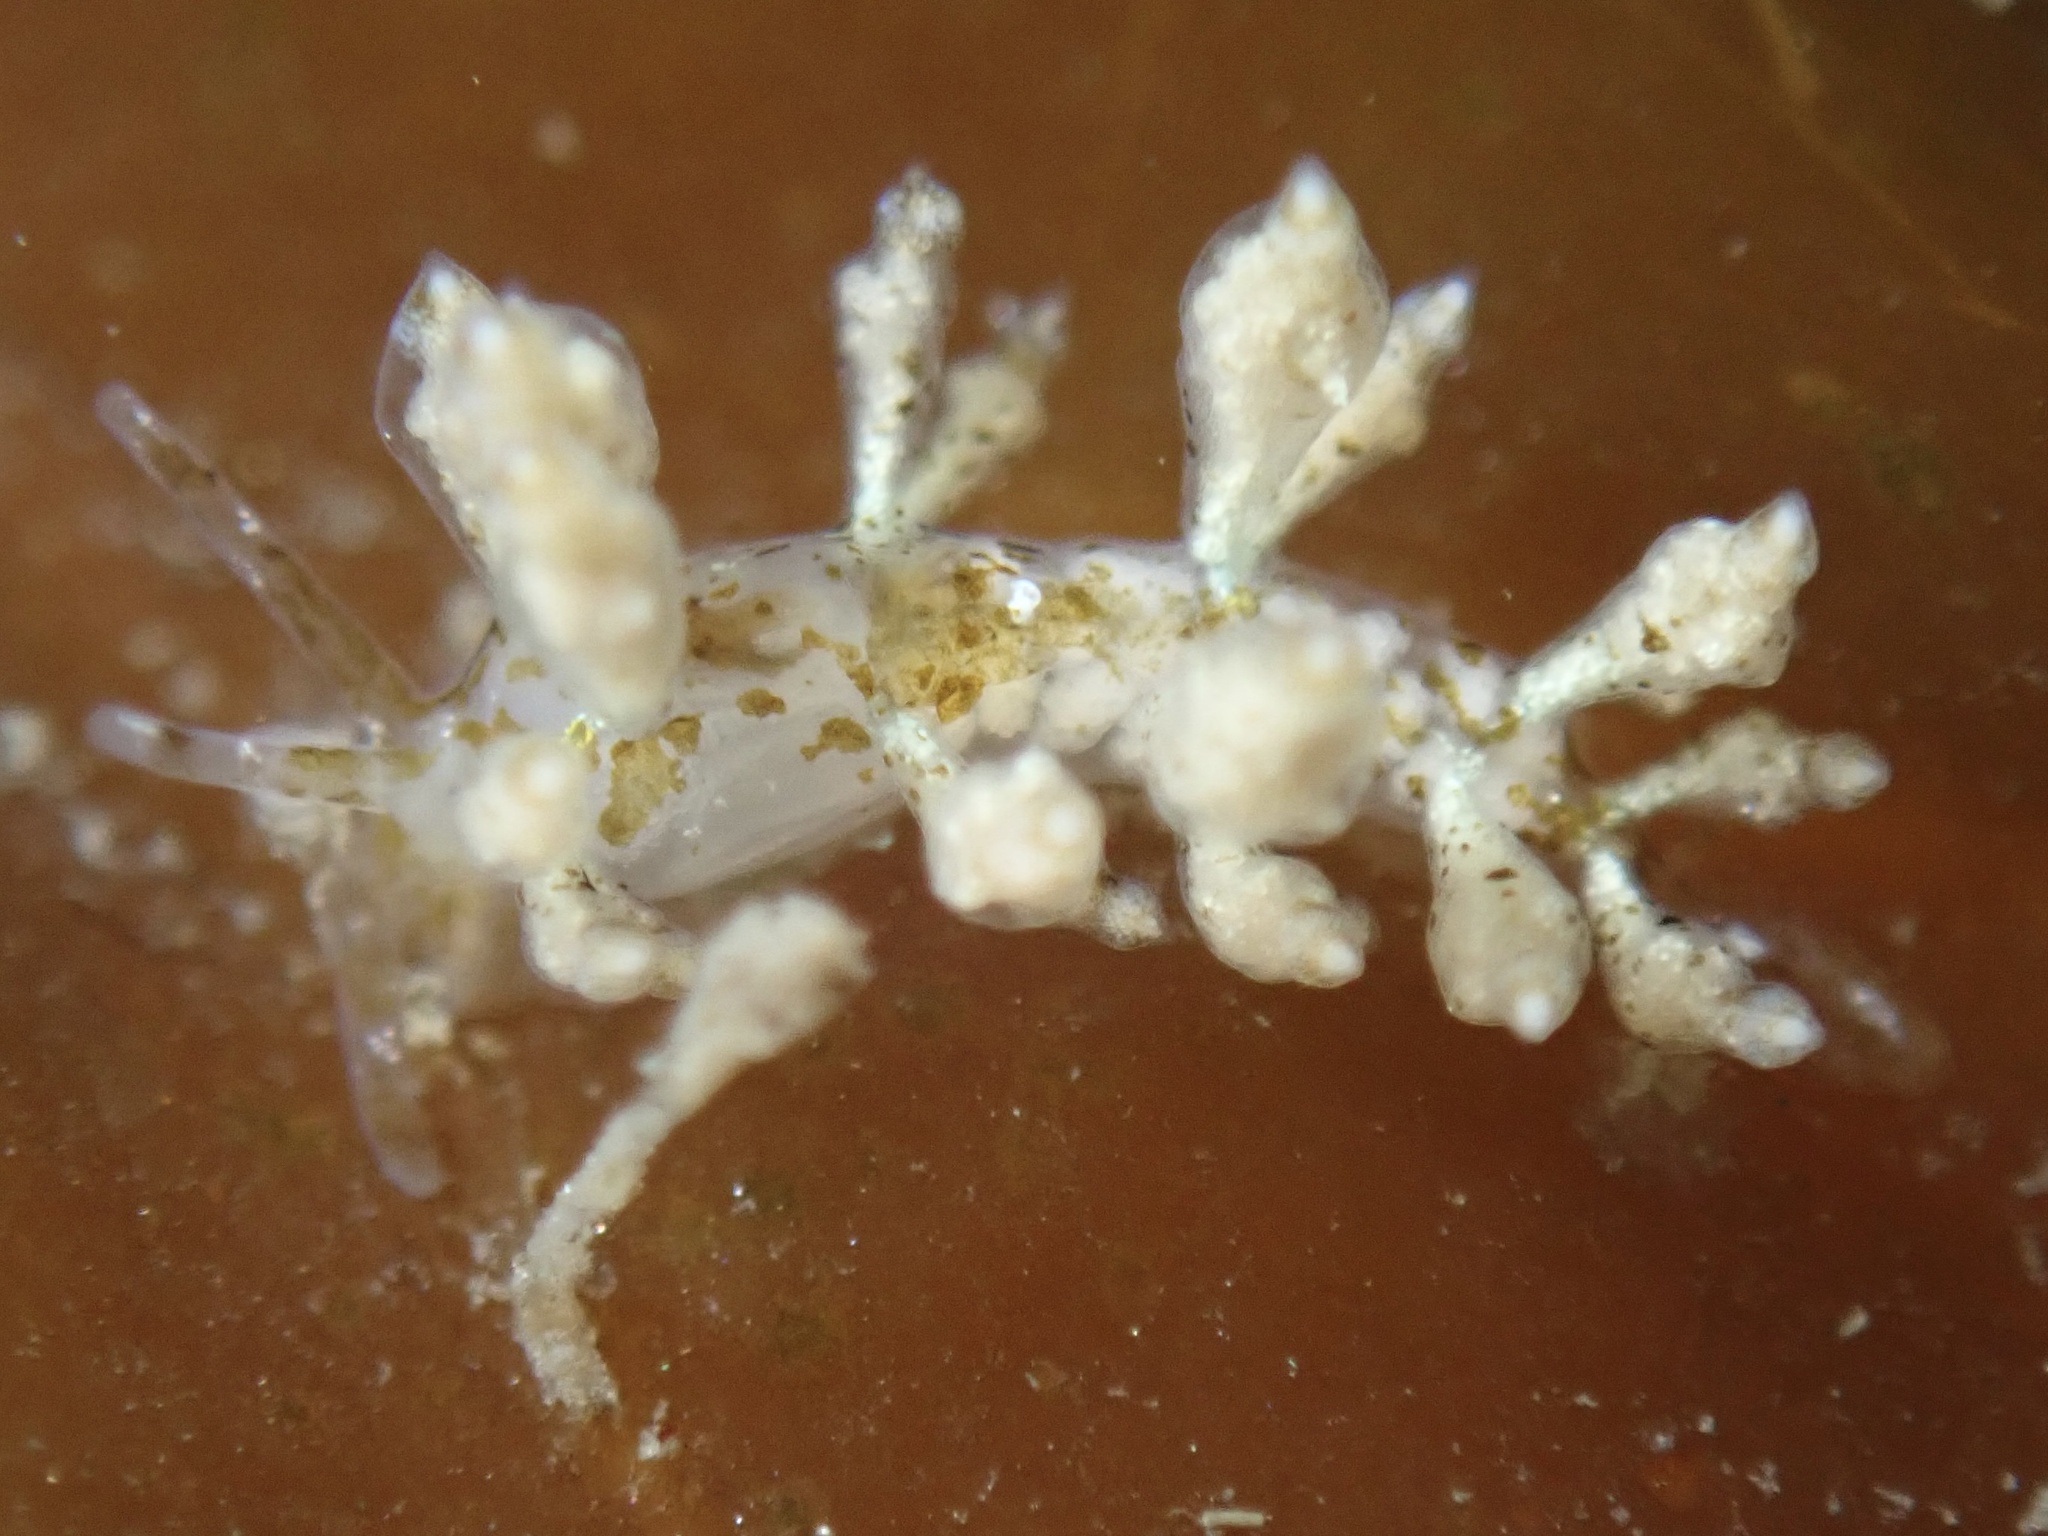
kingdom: Animalia
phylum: Mollusca
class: Gastropoda
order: Nudibranchia
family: Eubranchidae
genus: Eubranchus
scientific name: Eubranchus olivaceus
